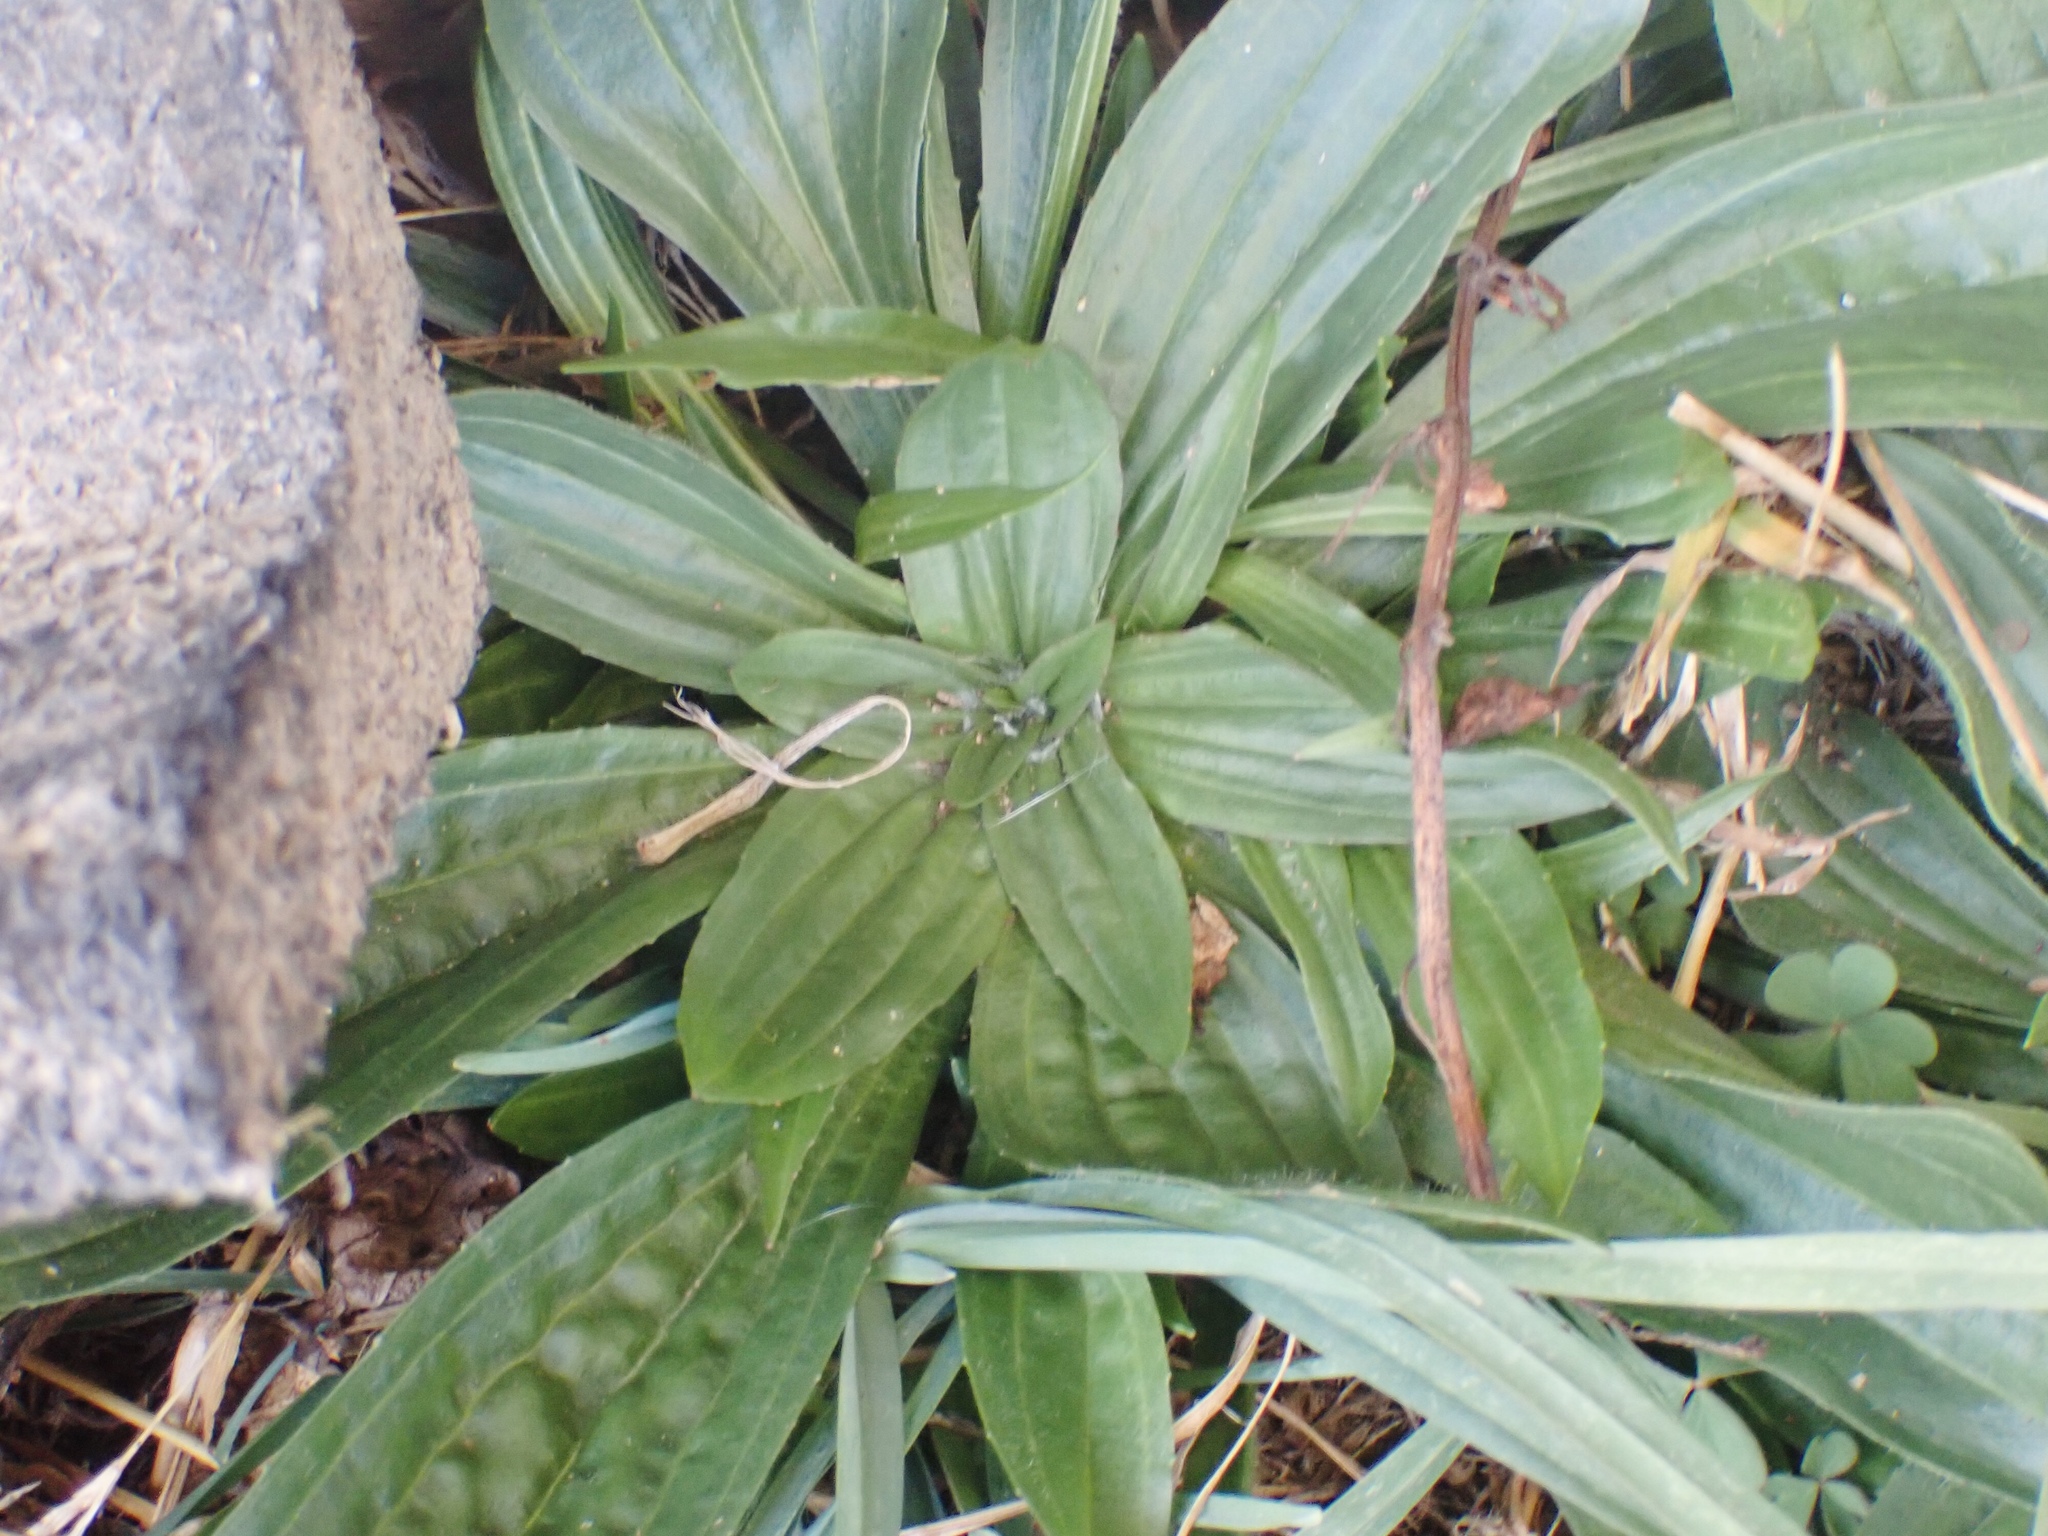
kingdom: Plantae
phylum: Tracheophyta
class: Magnoliopsida
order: Lamiales
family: Plantaginaceae
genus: Plantago
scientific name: Plantago lanceolata
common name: Ribwort plantain
